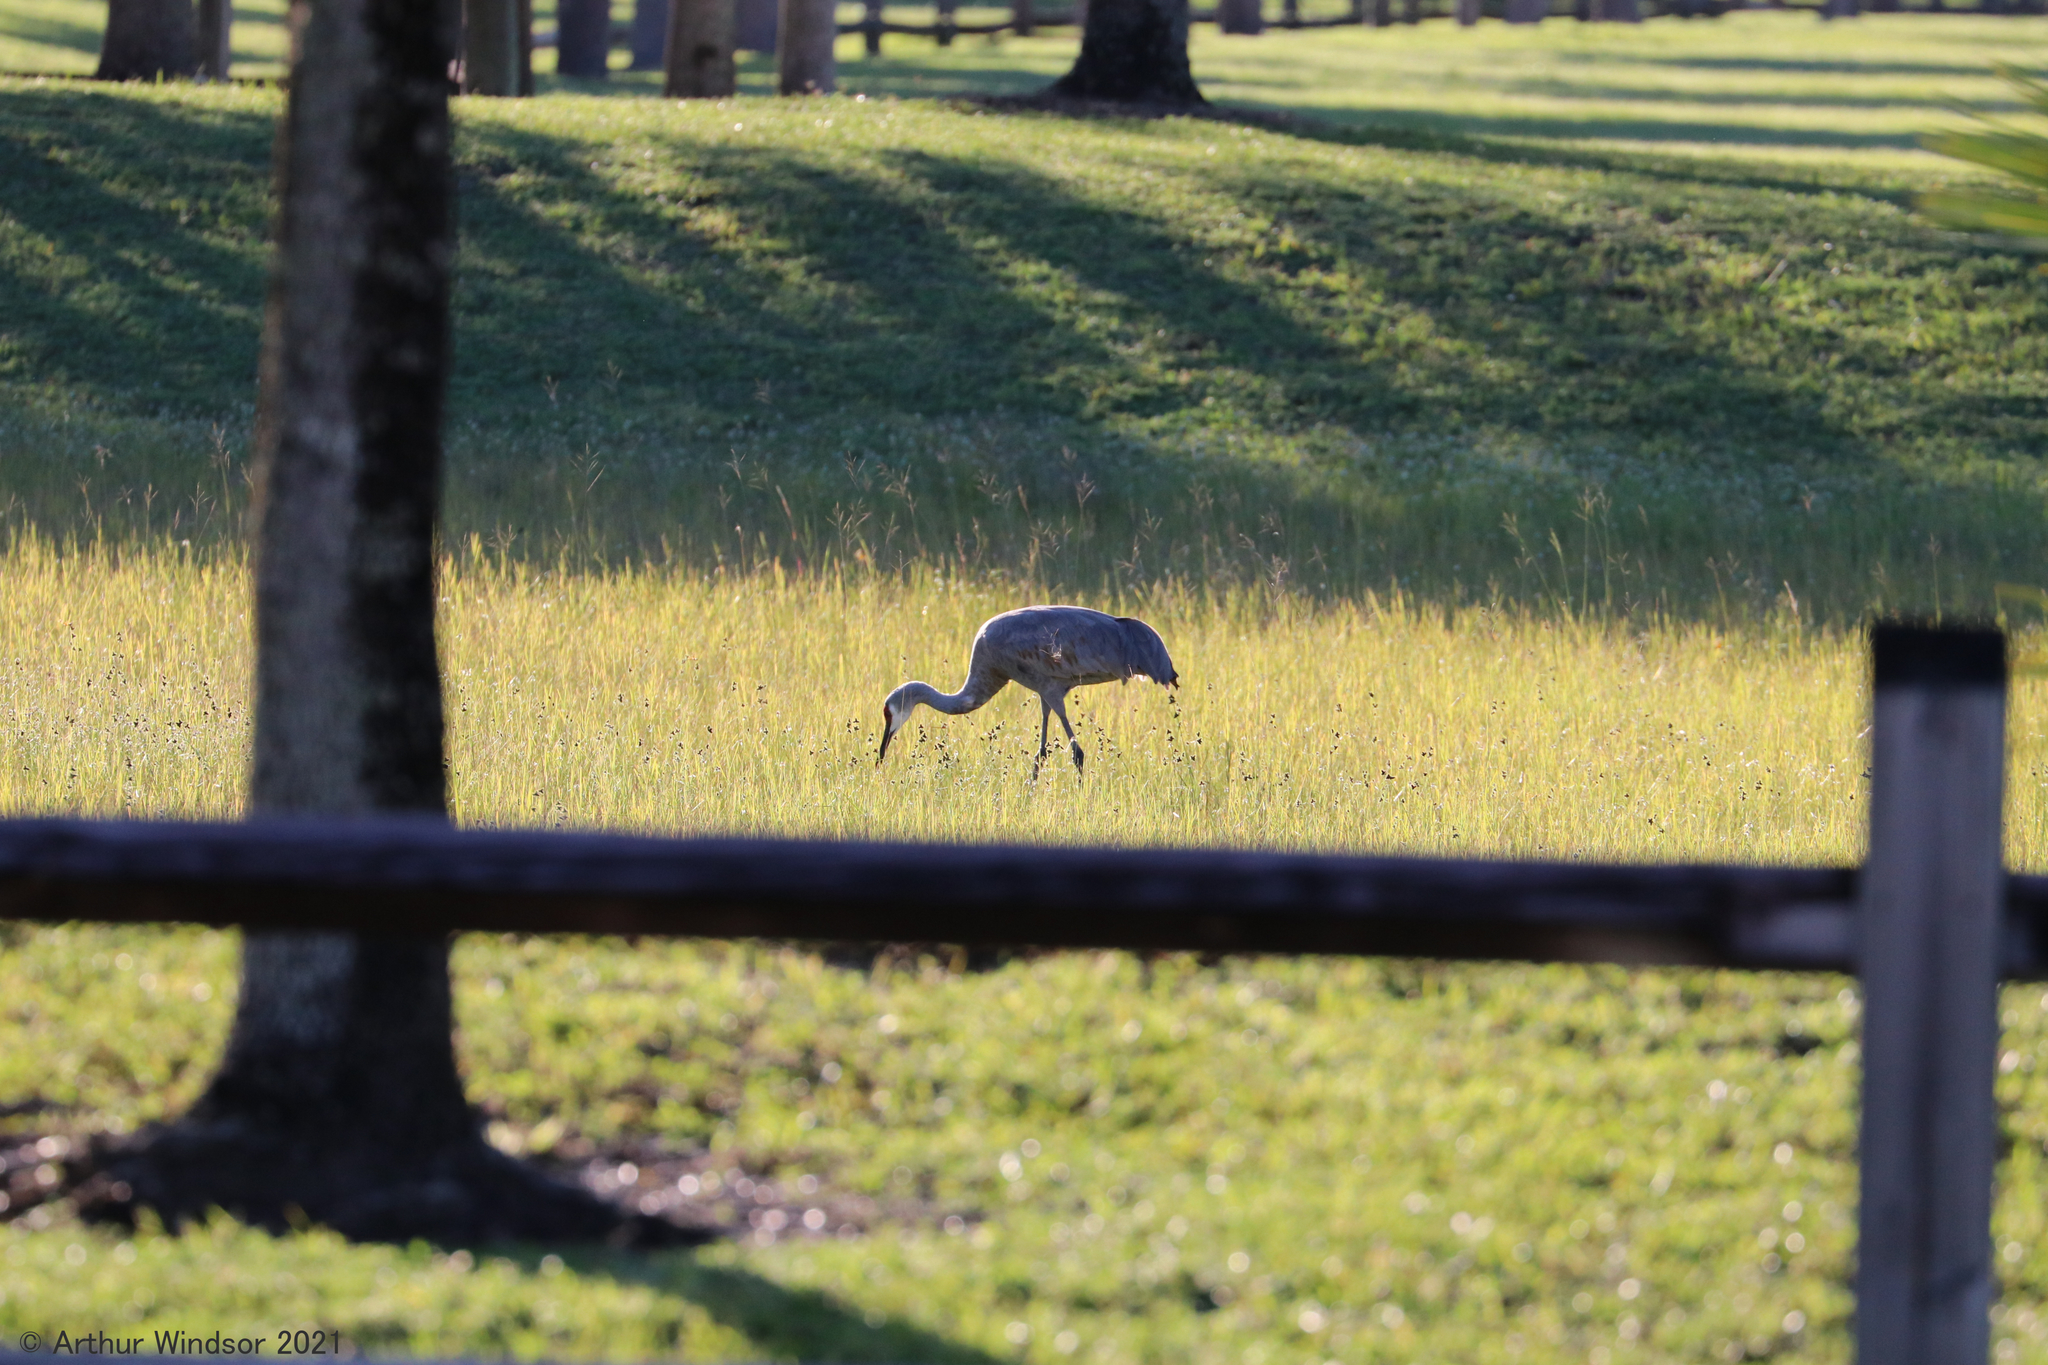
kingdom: Animalia
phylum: Chordata
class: Aves
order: Gruiformes
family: Gruidae
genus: Grus
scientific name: Grus canadensis
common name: Sandhill crane
